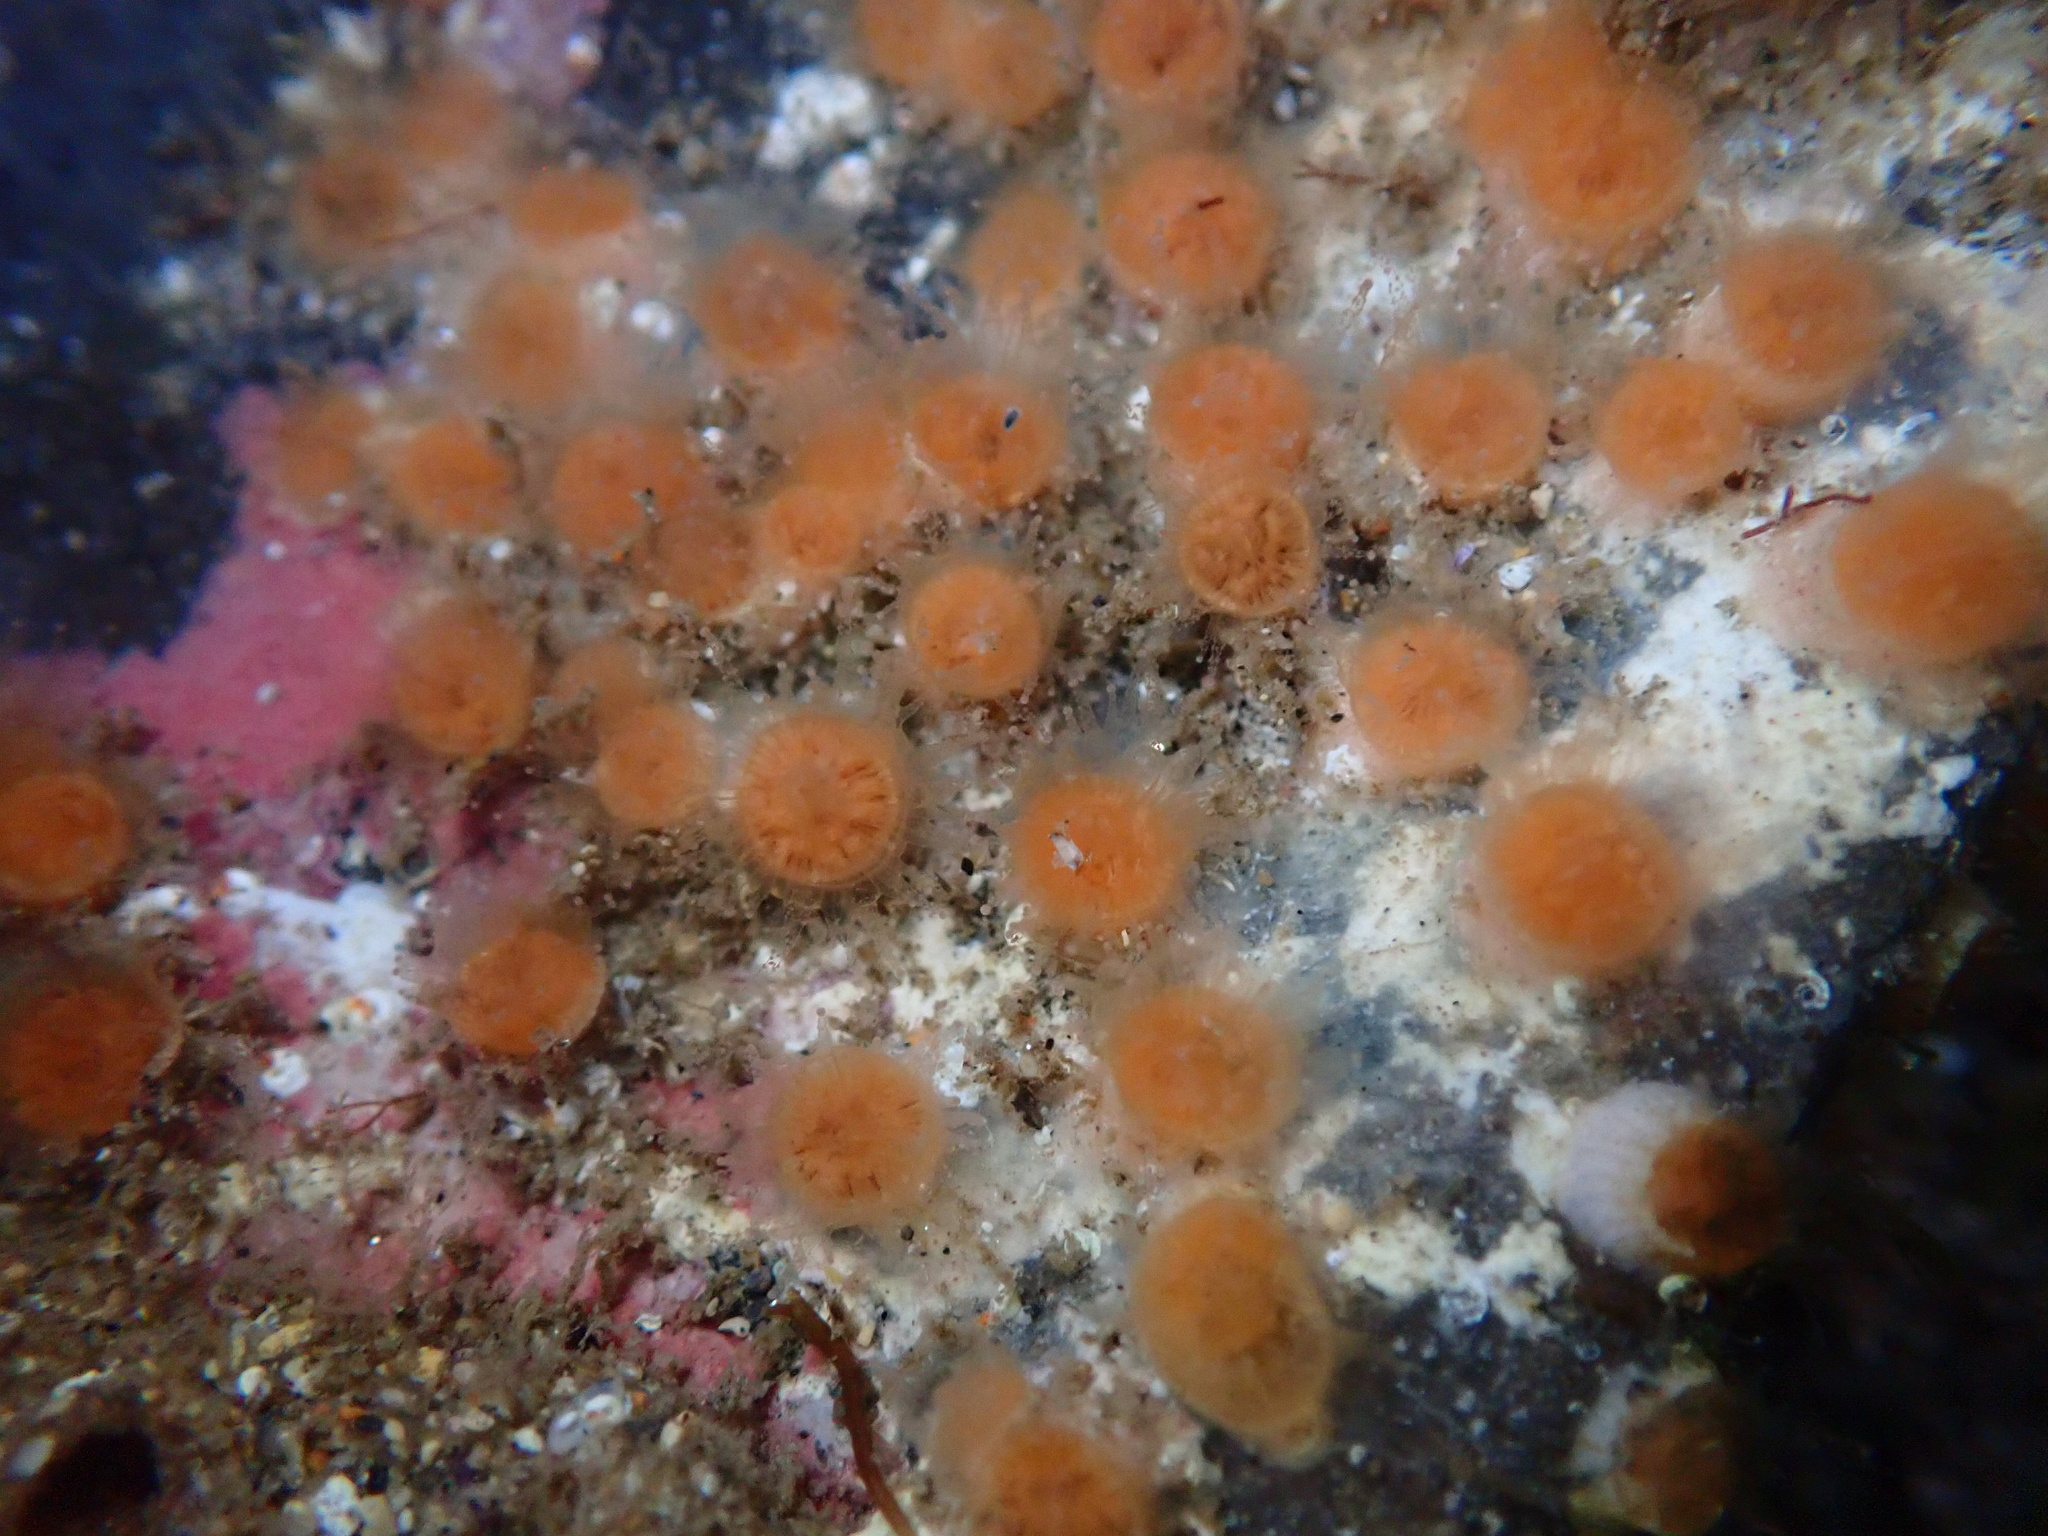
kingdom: Animalia
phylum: Cnidaria
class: Anthozoa
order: Scleractinia
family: Astrangiidae
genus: Astrangia
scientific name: Astrangia haimei
